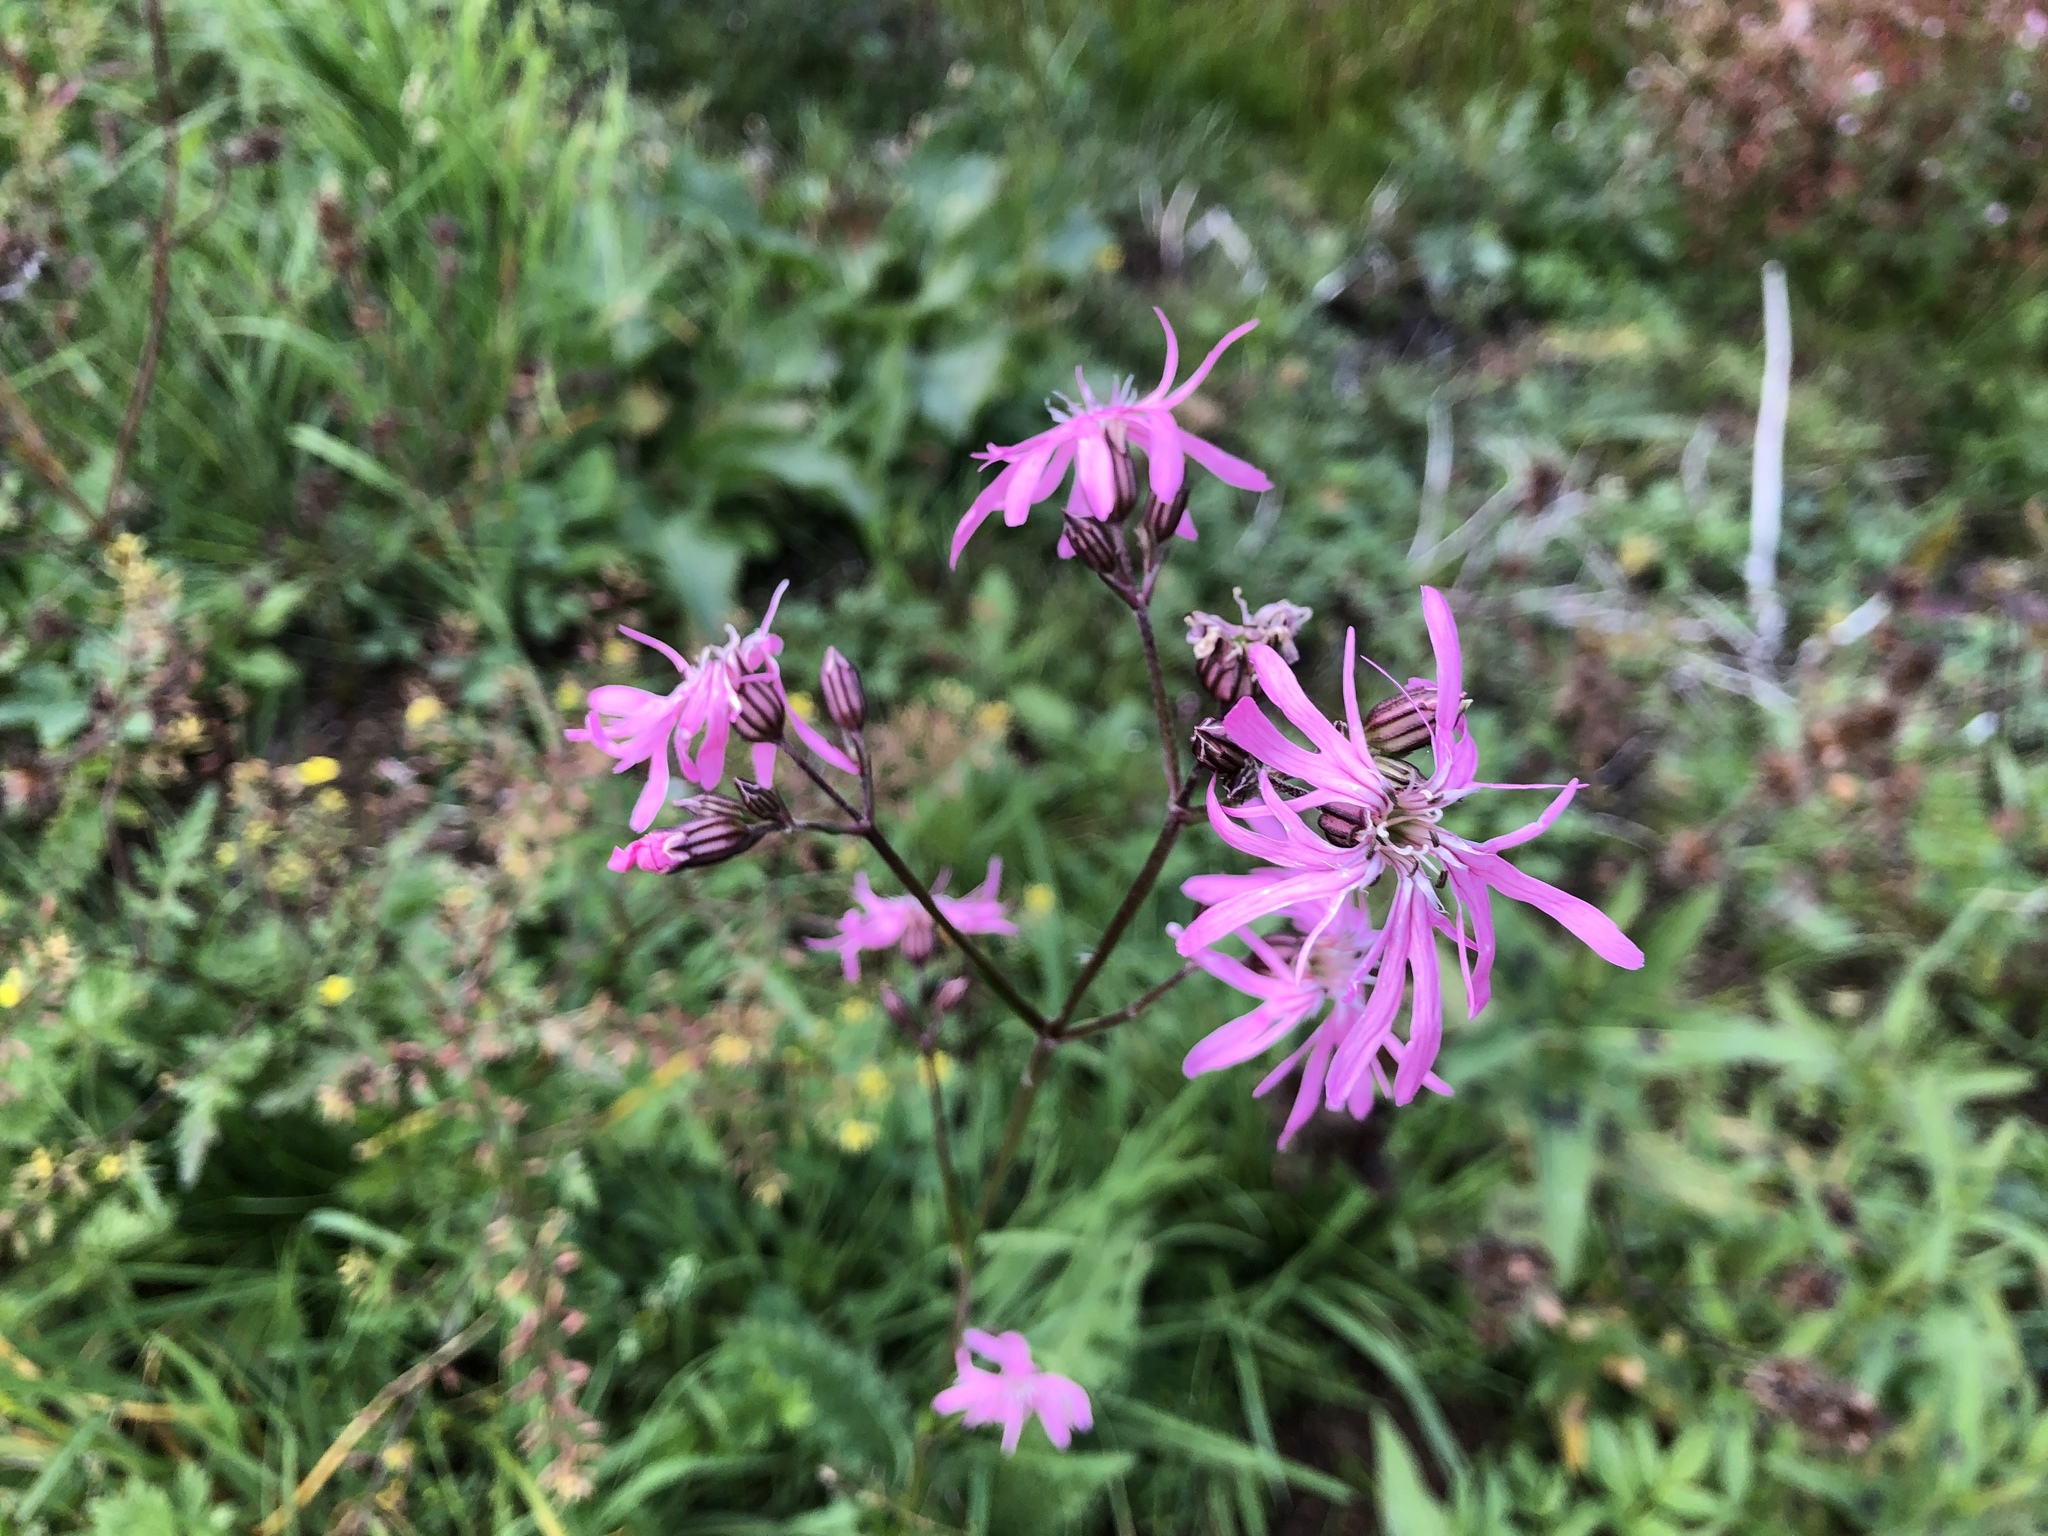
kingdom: Plantae
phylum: Tracheophyta
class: Magnoliopsida
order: Caryophyllales
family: Caryophyllaceae
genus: Silene
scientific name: Silene flos-cuculi
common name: Ragged-robin
